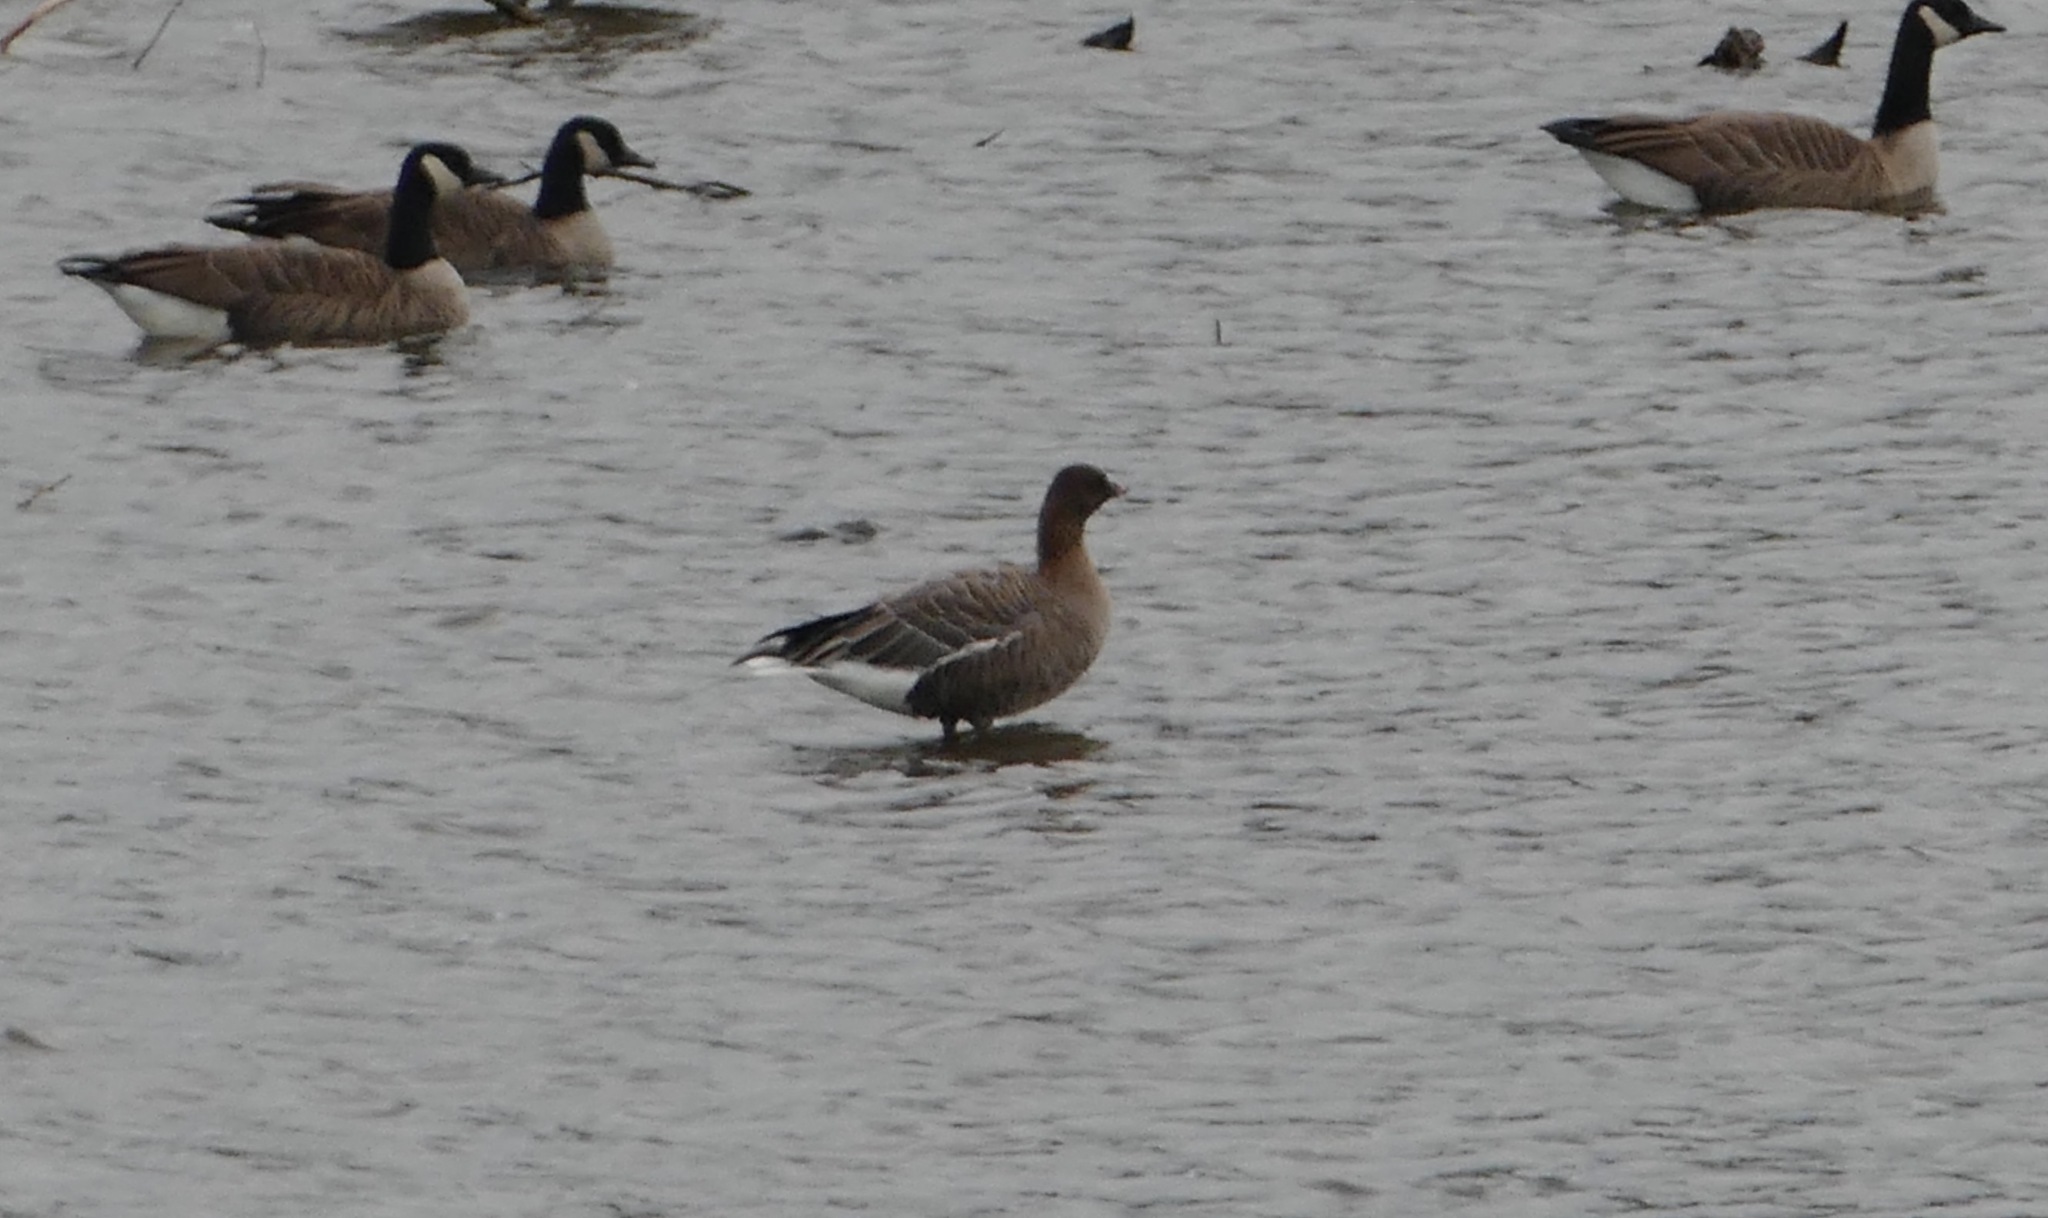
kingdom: Animalia
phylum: Chordata
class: Aves
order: Anseriformes
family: Anatidae
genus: Anser
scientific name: Anser brachyrhynchus
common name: Pink-footed goose
